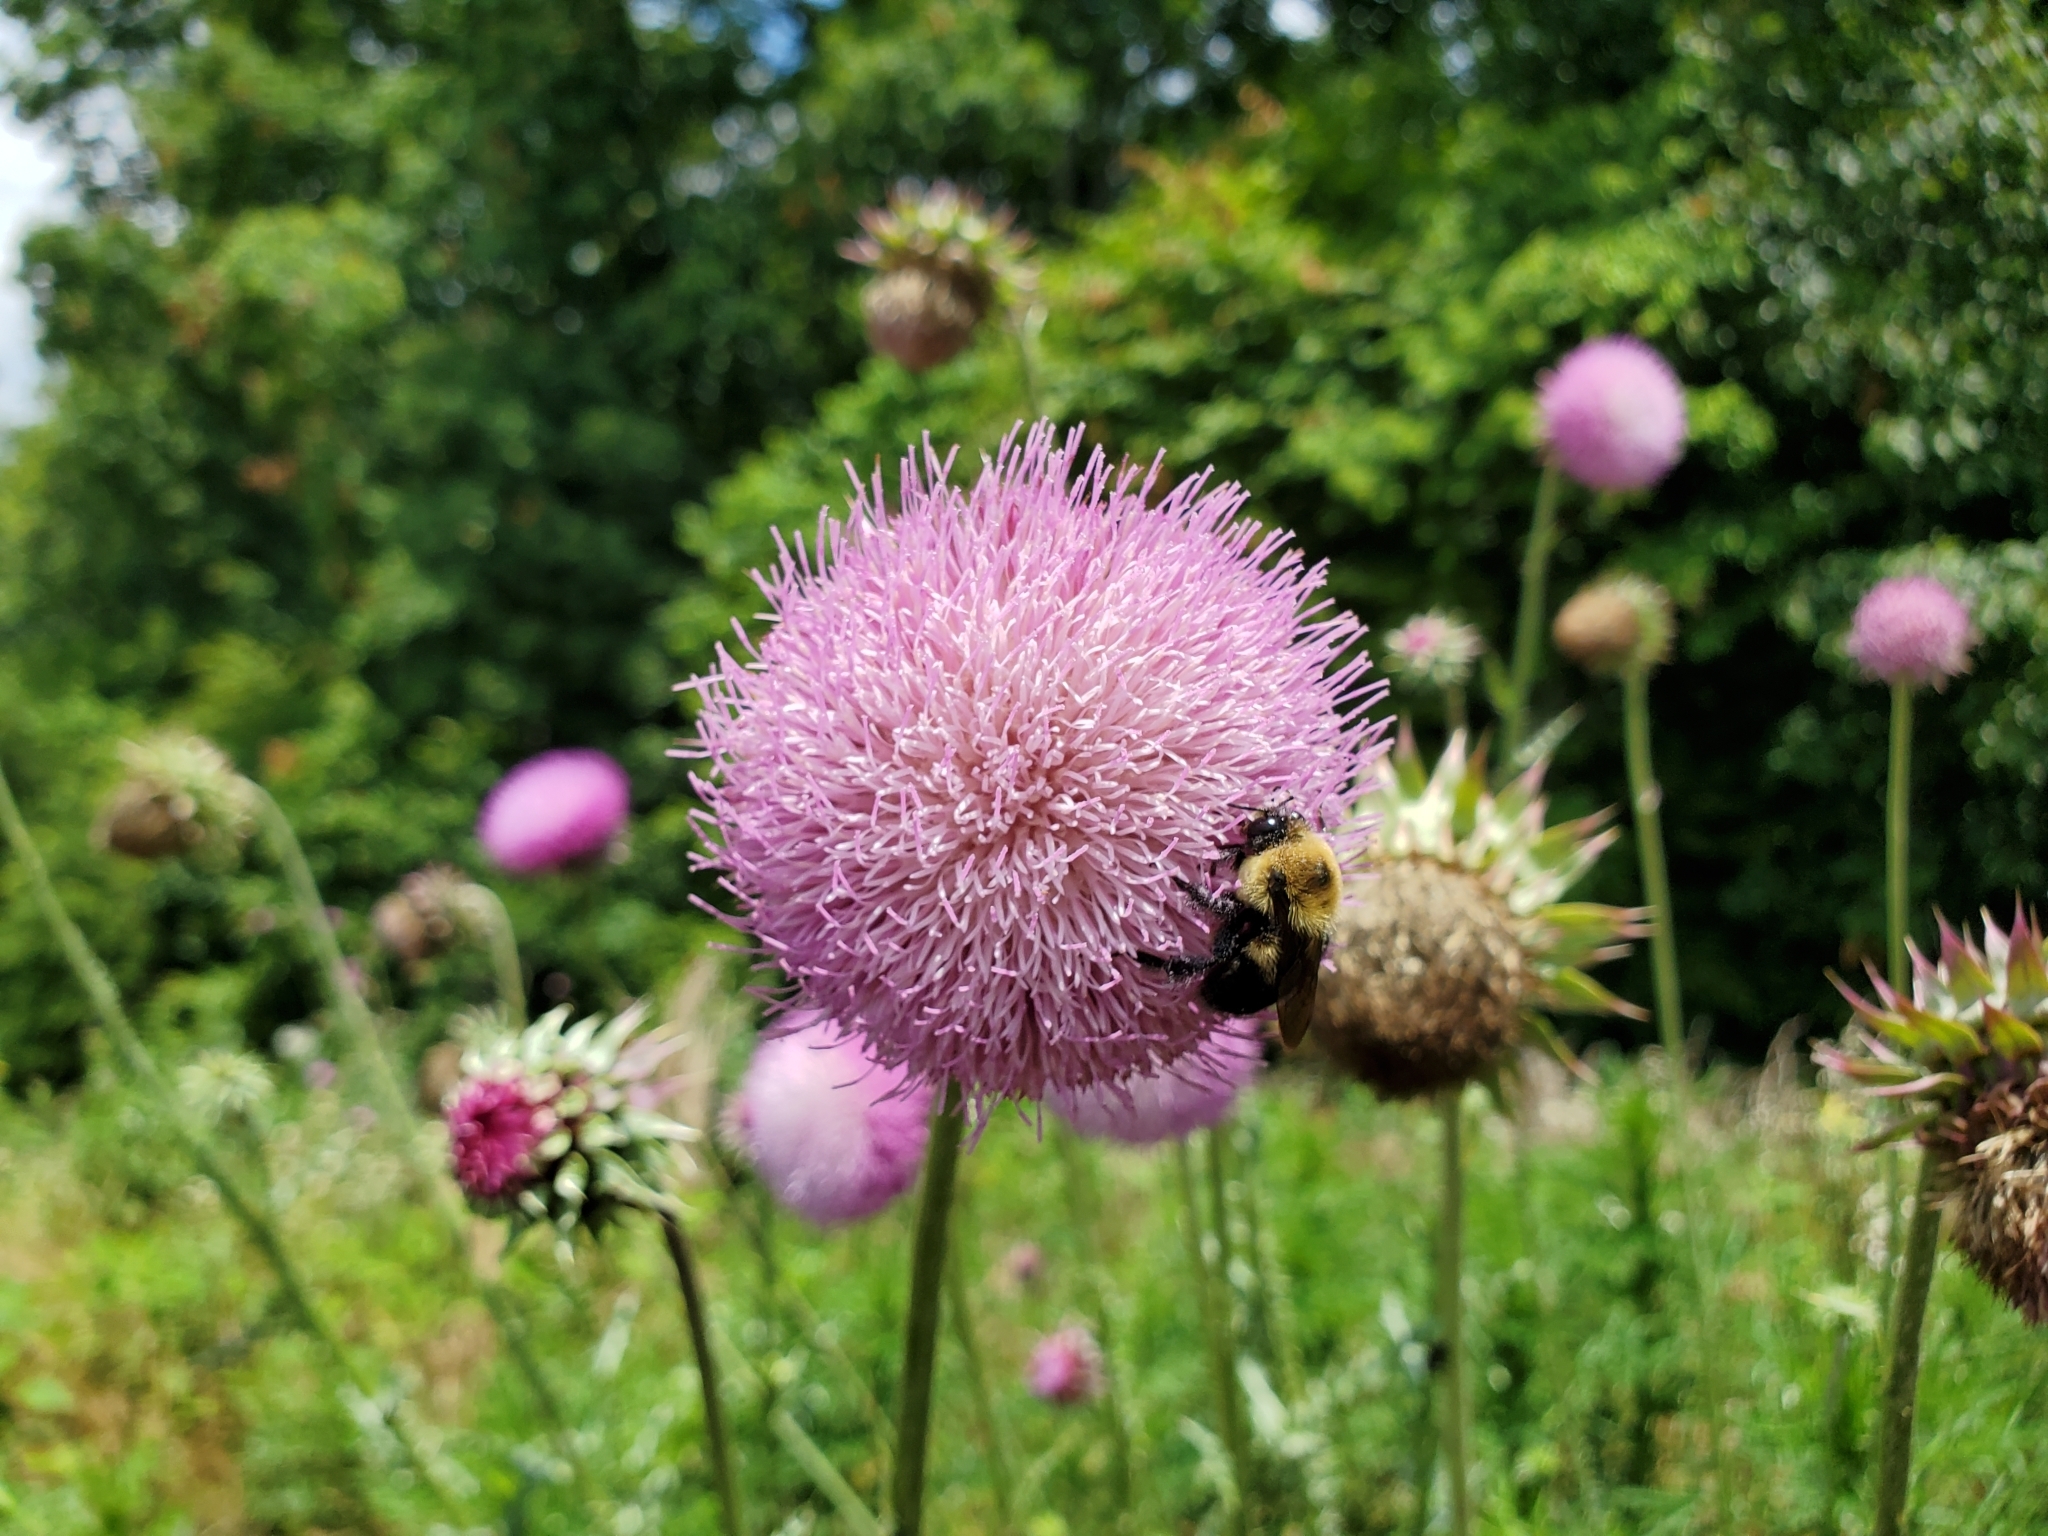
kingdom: Plantae
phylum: Tracheophyta
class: Magnoliopsida
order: Asterales
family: Asteraceae
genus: Carduus
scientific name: Carduus nutans
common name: Musk thistle
